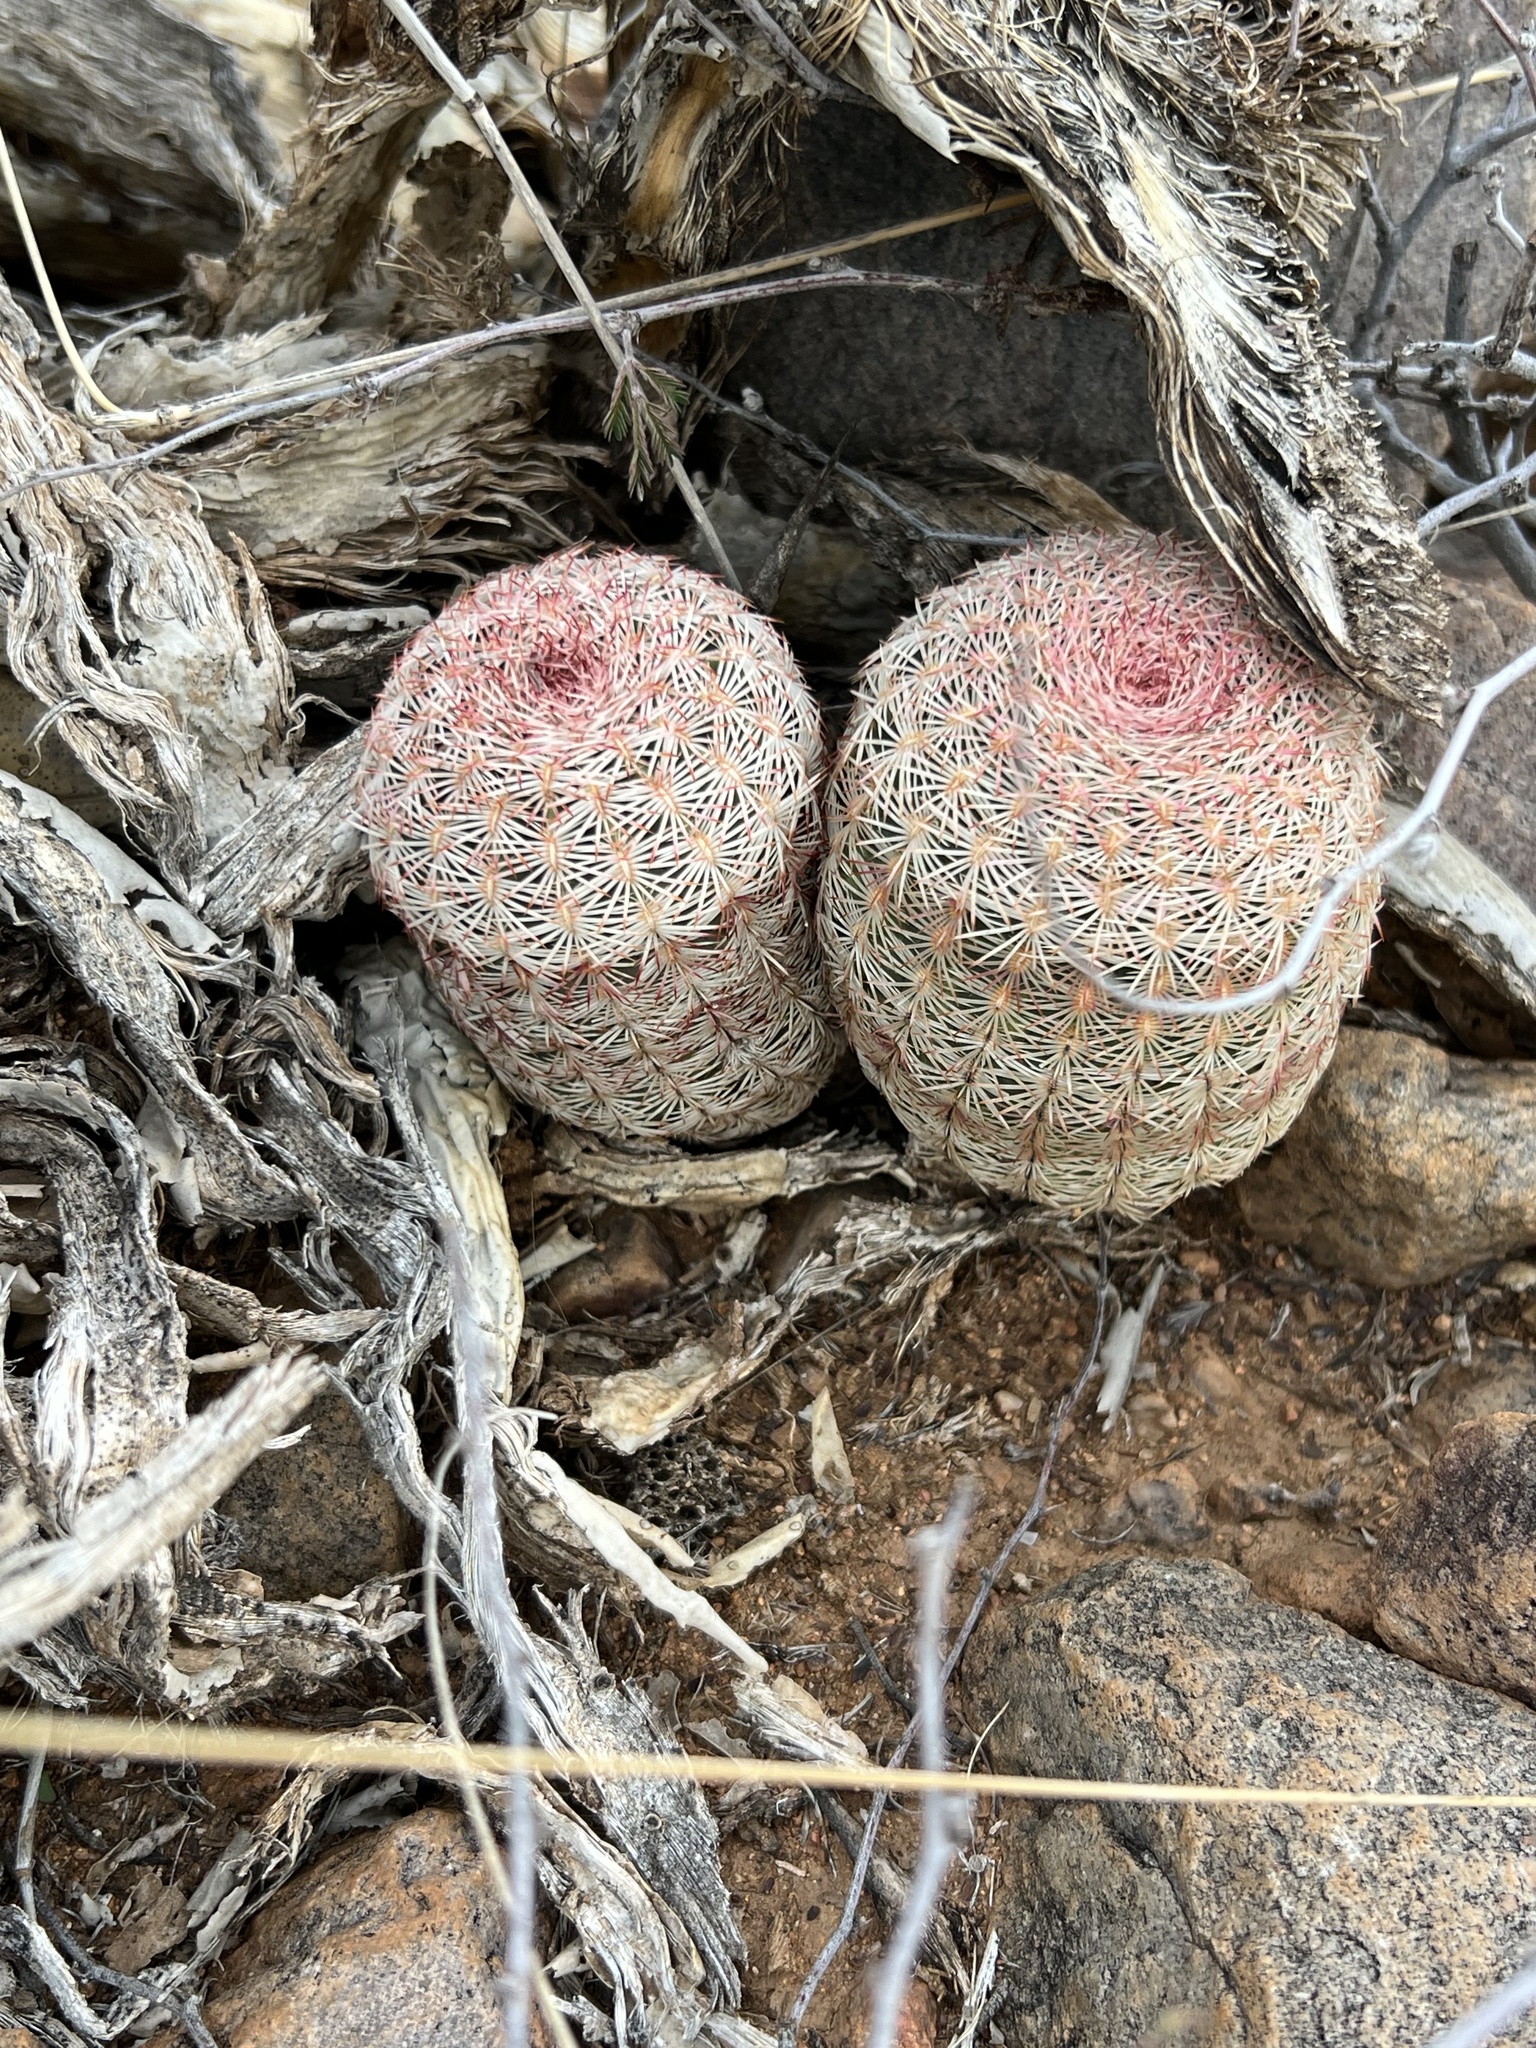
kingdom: Plantae
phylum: Tracheophyta
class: Magnoliopsida
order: Caryophyllales
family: Cactaceae
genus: Echinocereus
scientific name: Echinocereus rigidissimus
